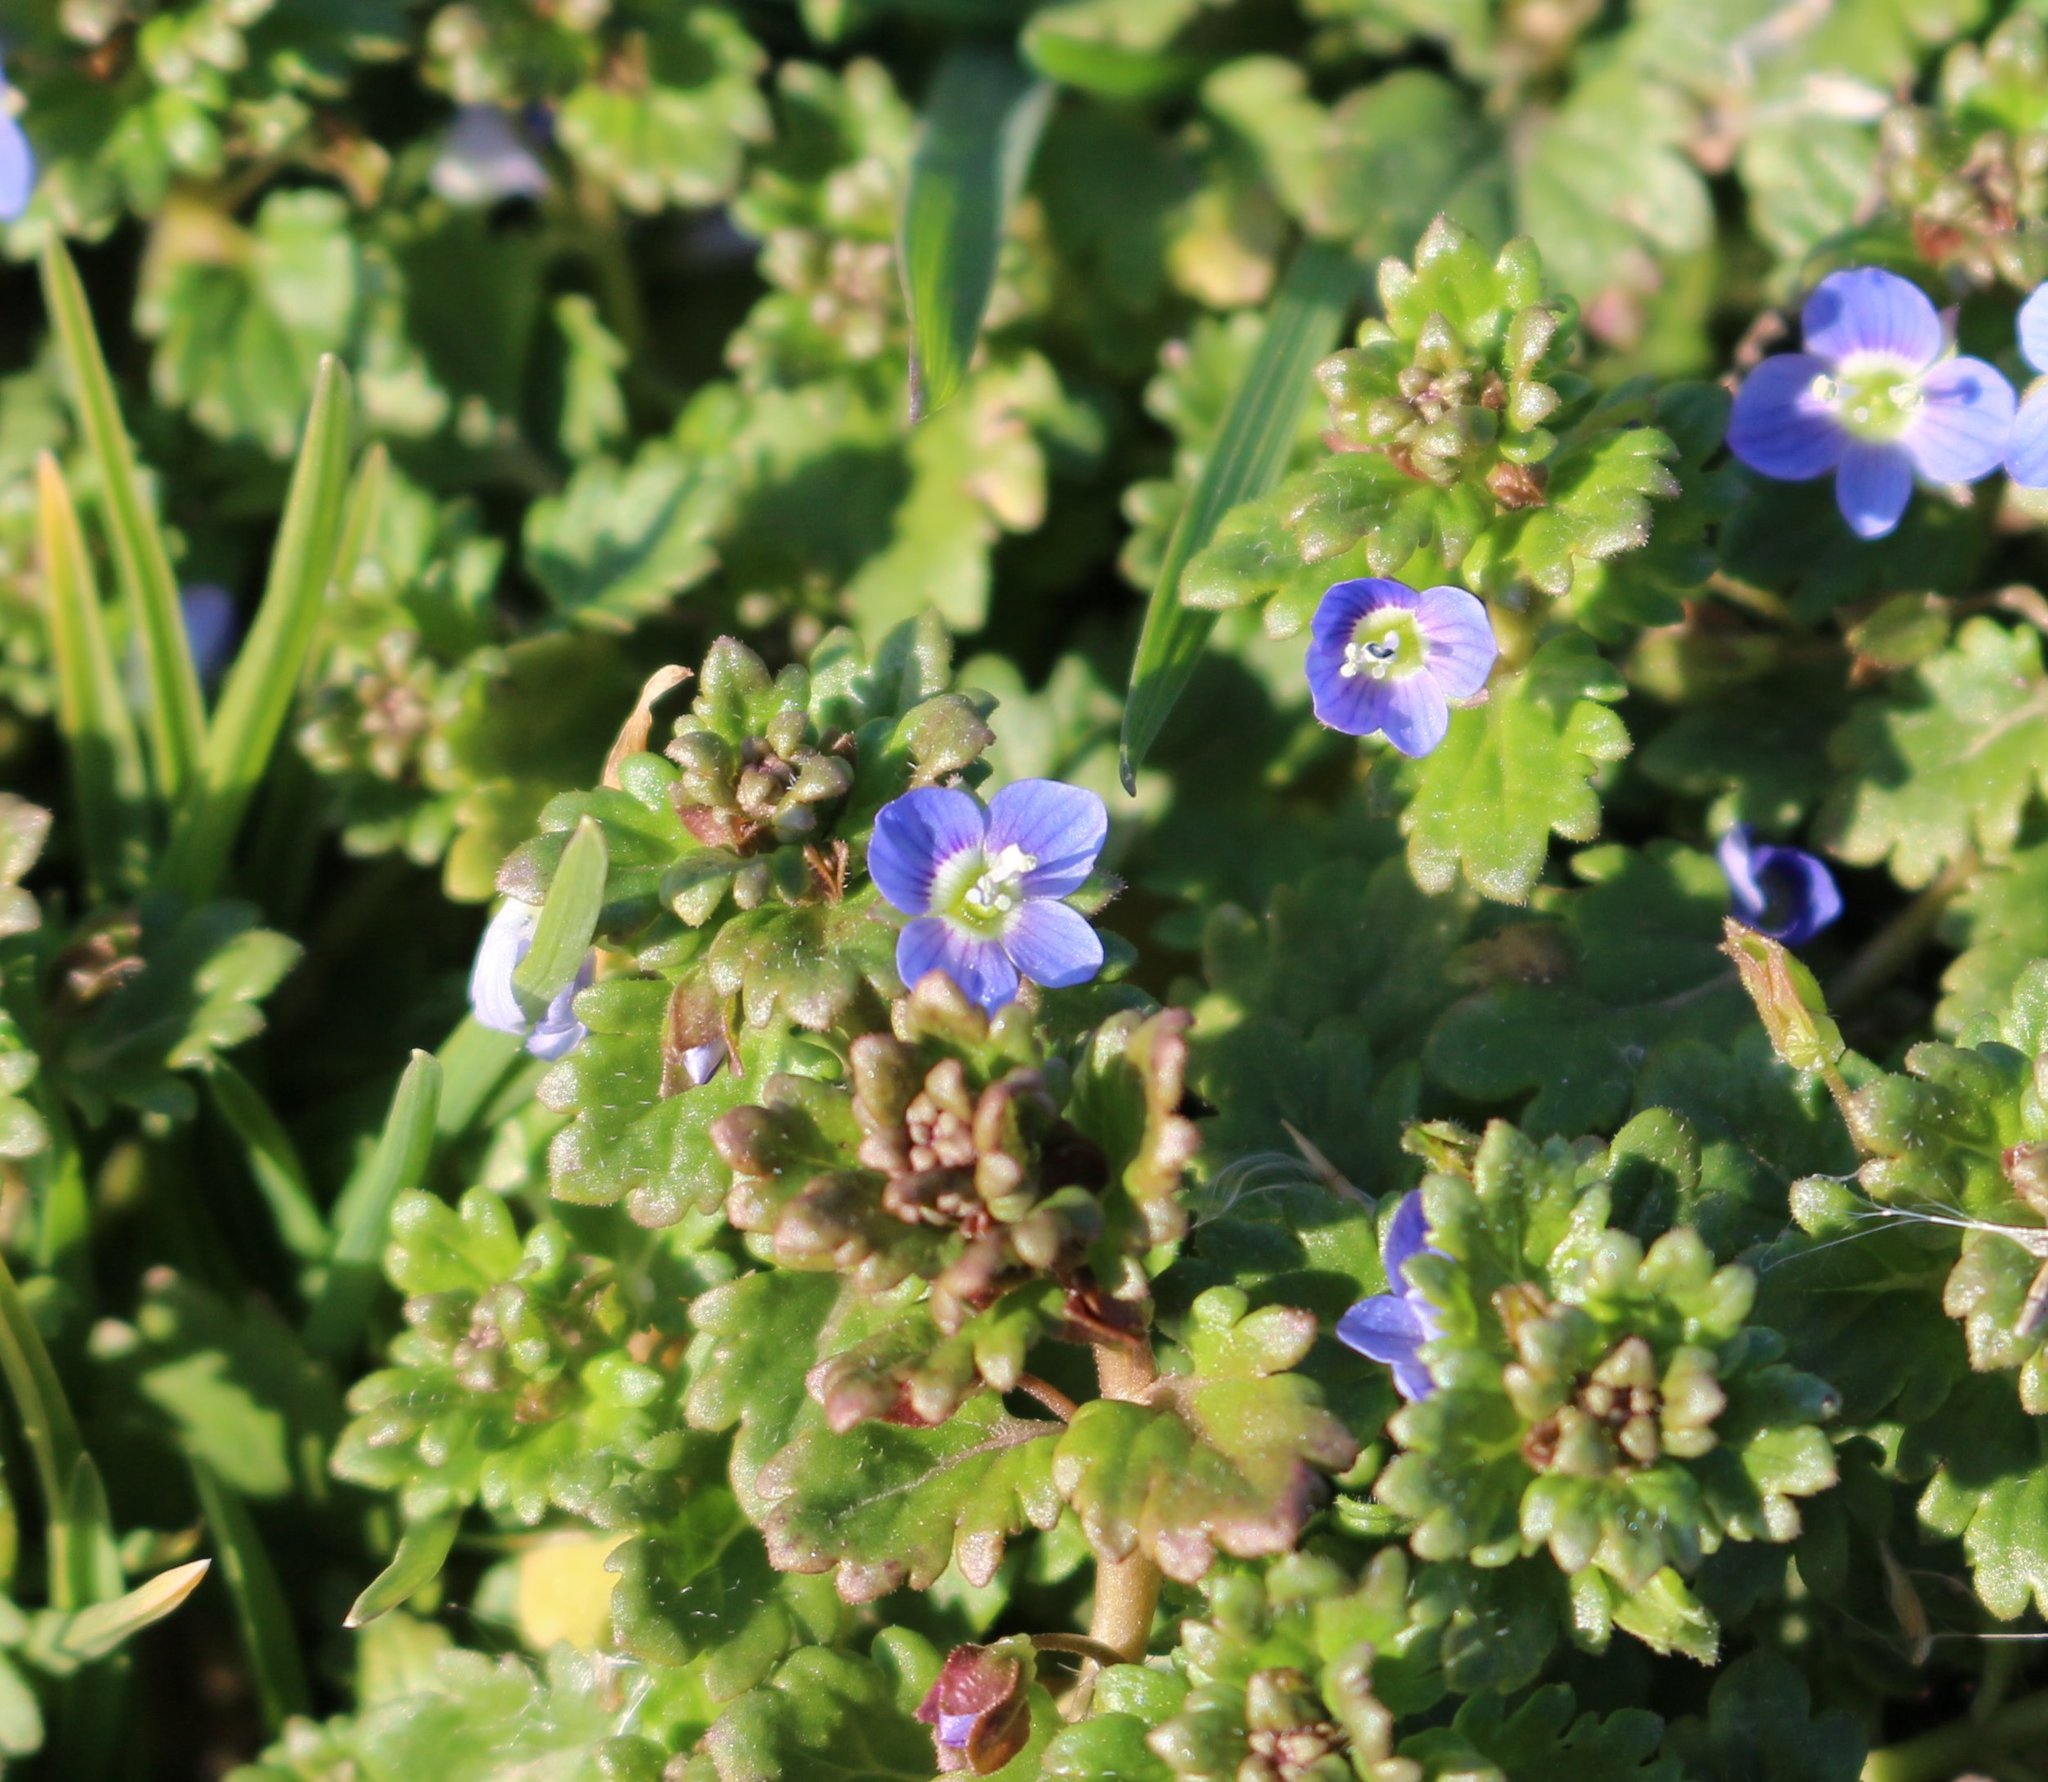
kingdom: Plantae
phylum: Tracheophyta
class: Magnoliopsida
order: Lamiales
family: Plantaginaceae
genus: Veronica
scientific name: Veronica polita
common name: Grey field-speedwell
